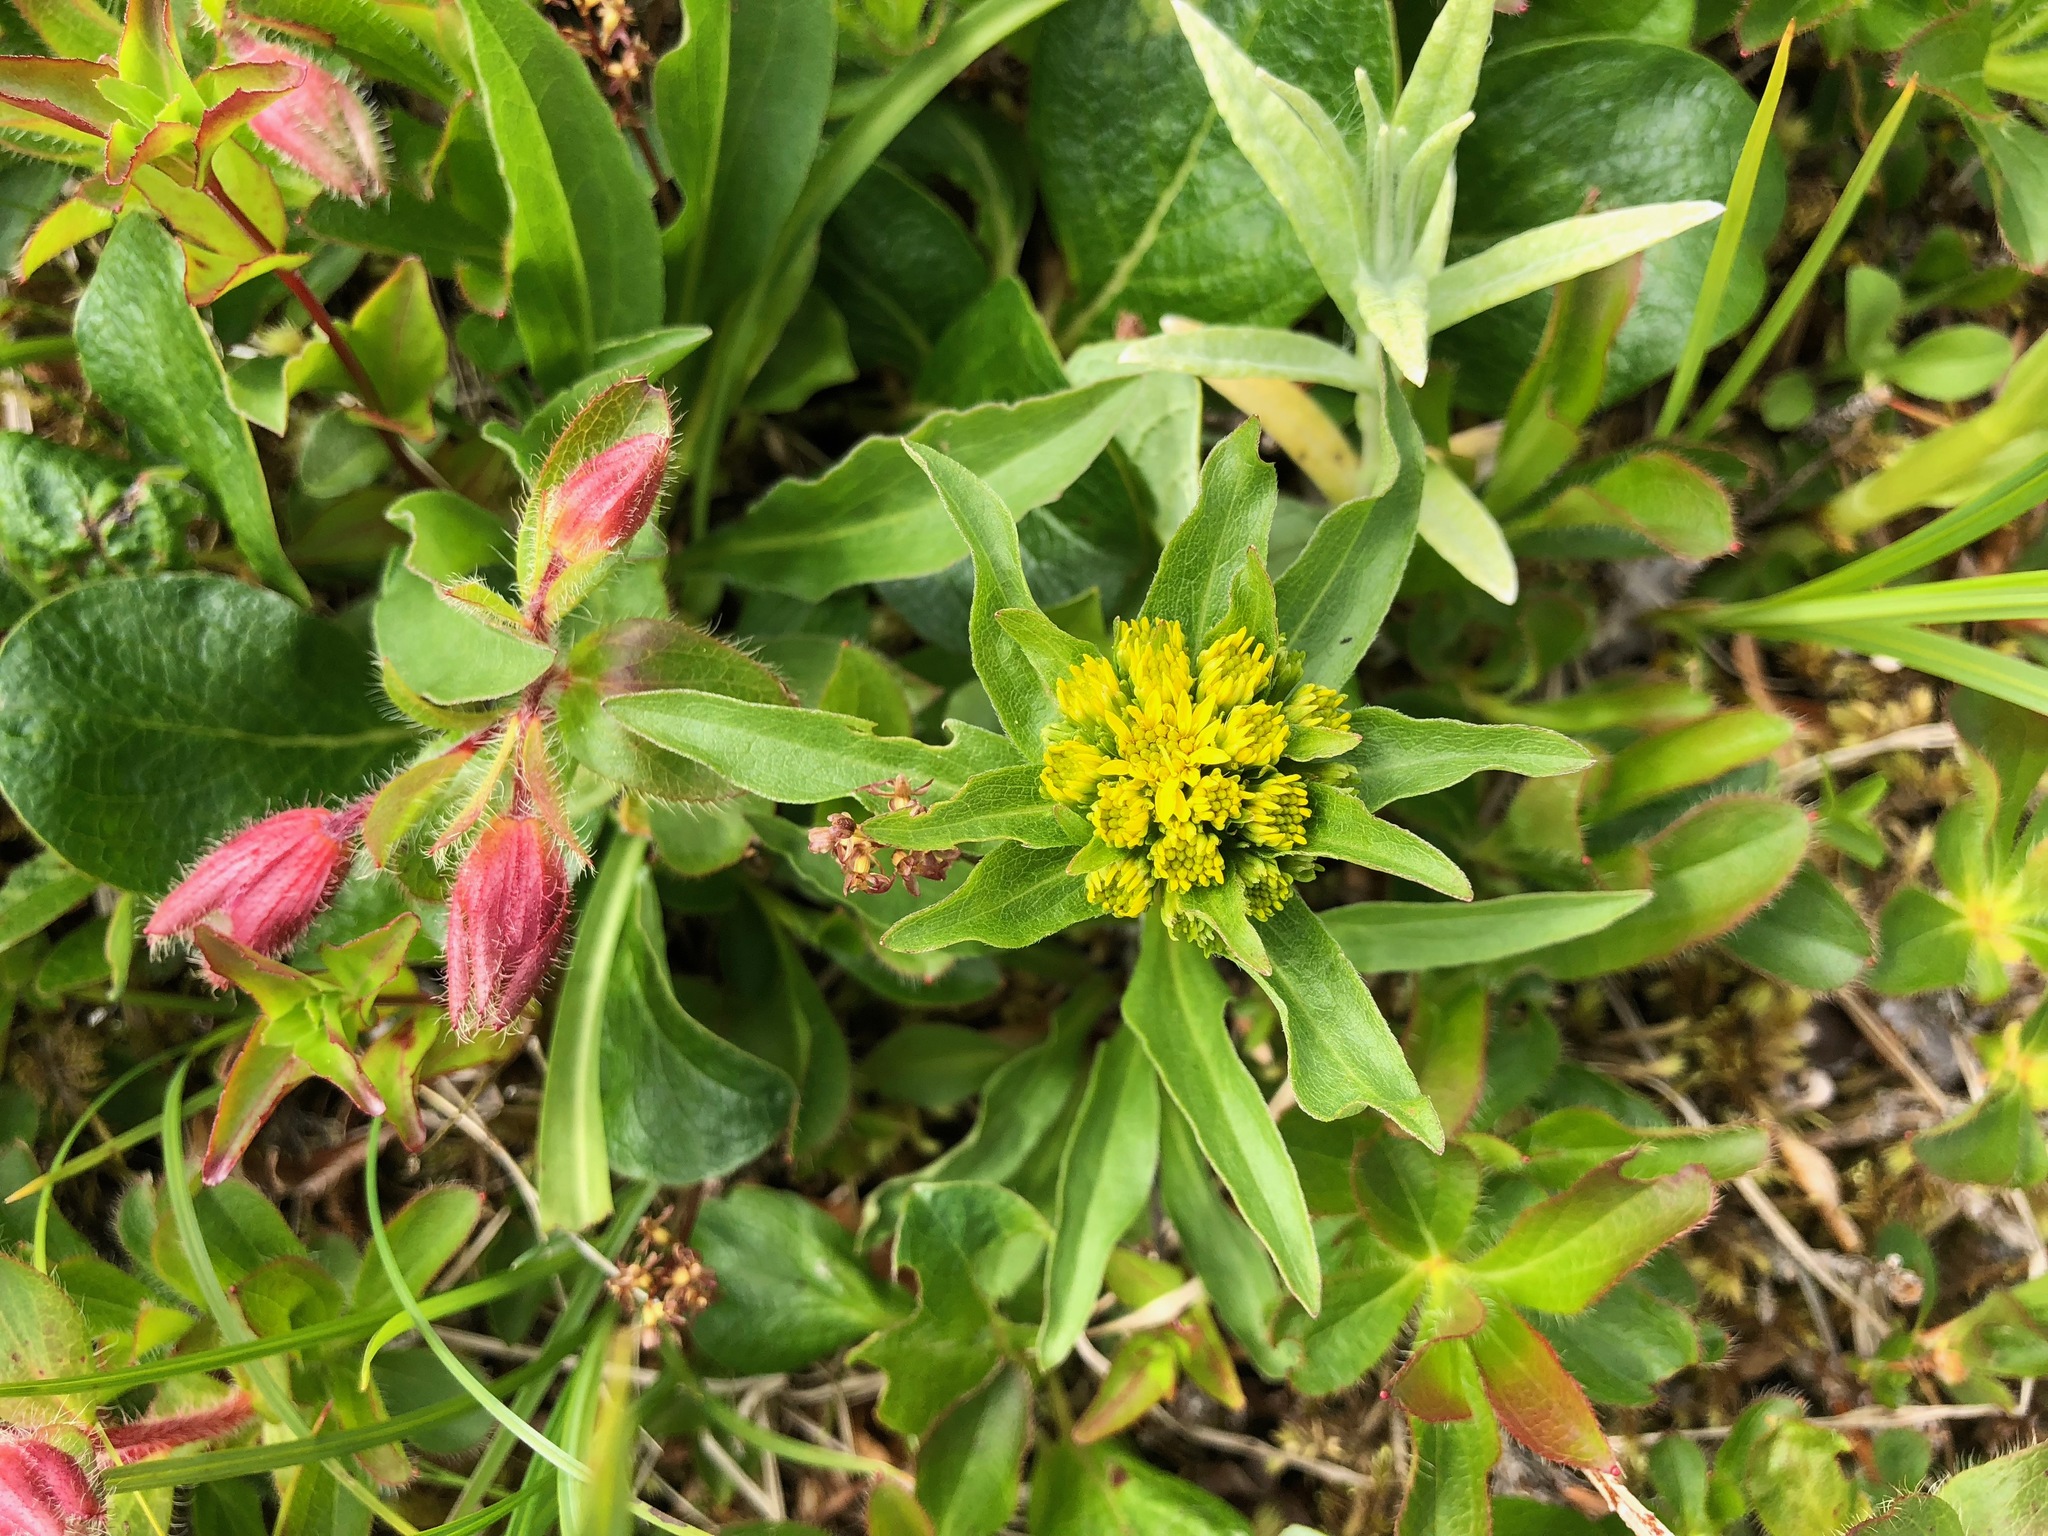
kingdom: Plantae
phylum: Tracheophyta
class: Magnoliopsida
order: Asterales
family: Asteraceae
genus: Solidago
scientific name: Solidago multiradiata
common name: Northern goldenrod
